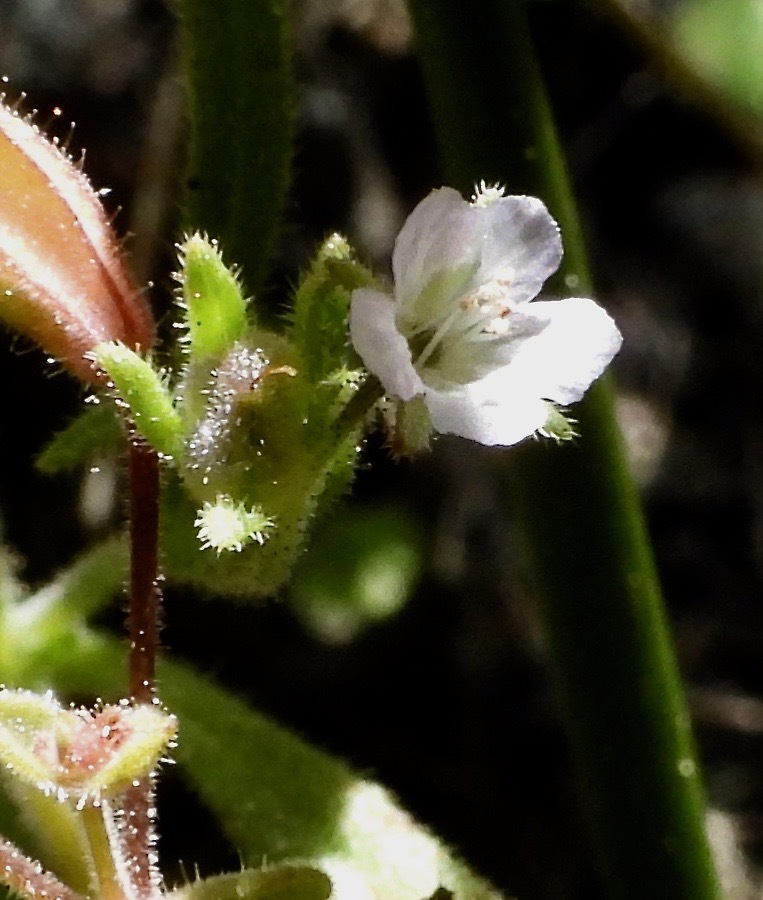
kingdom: Plantae
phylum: Tracheophyta
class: Magnoliopsida
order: Boraginales
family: Hydrophyllaceae
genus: Phacelia
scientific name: Phacelia leonis
